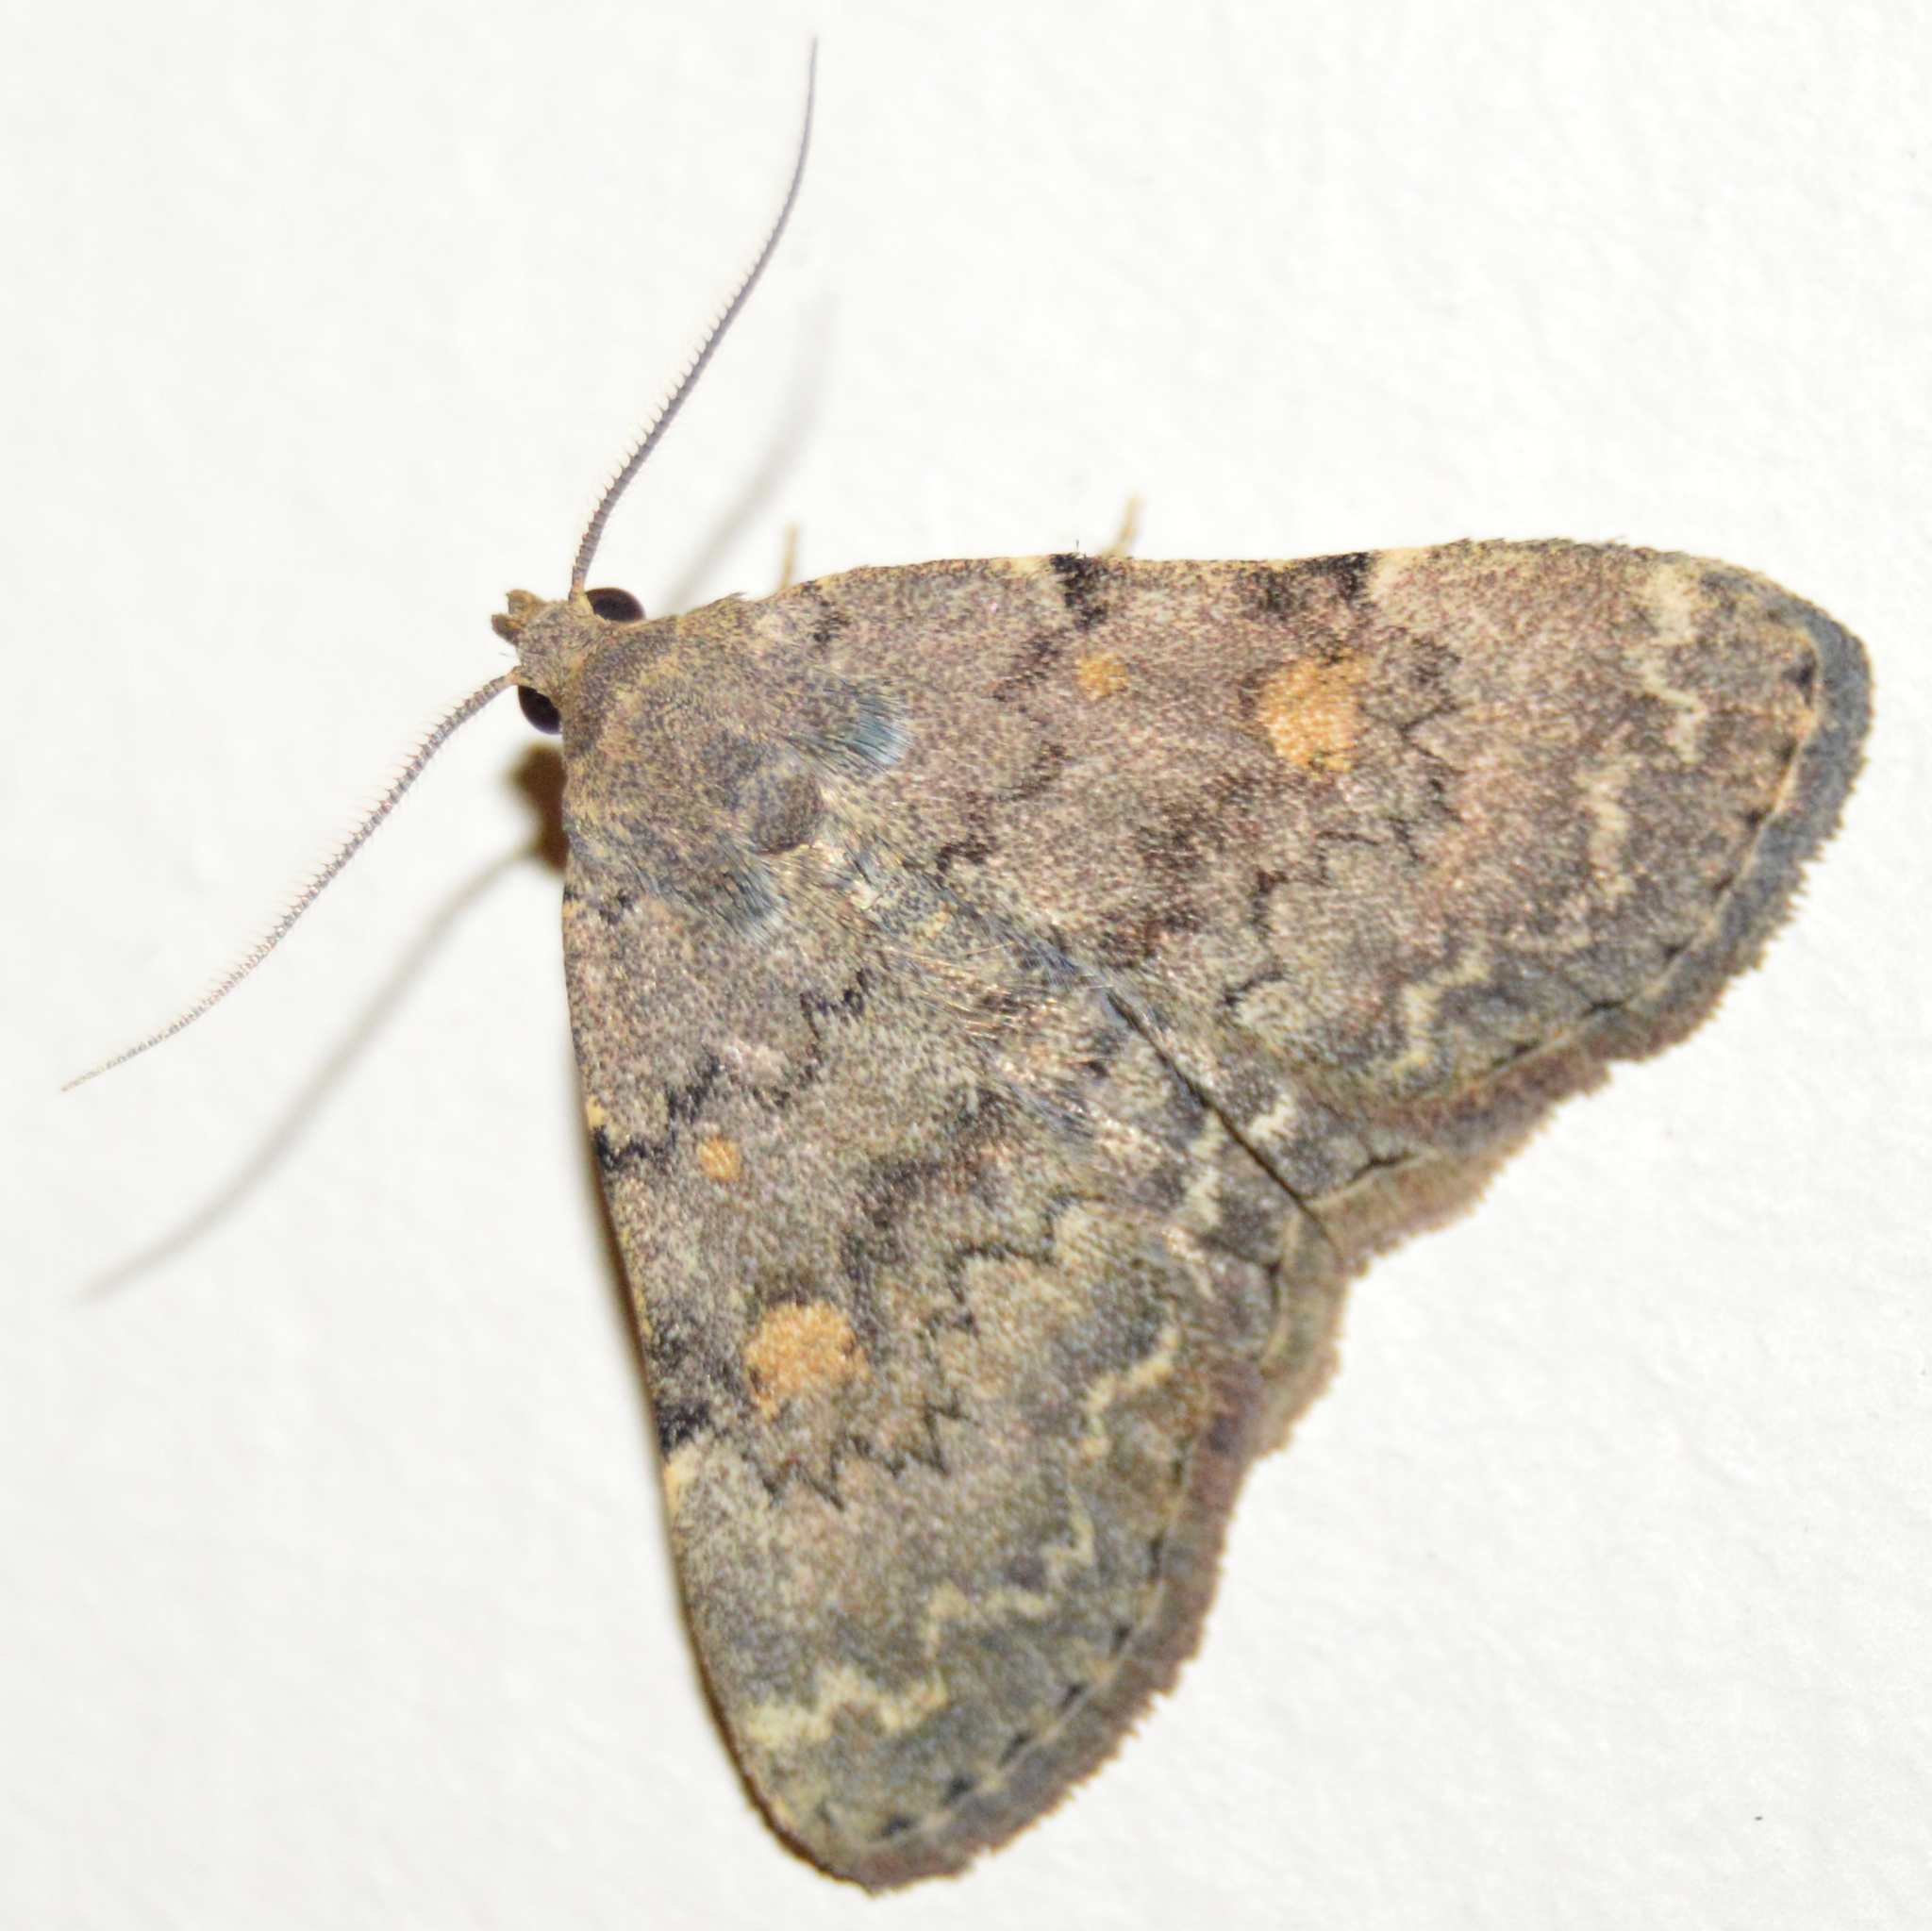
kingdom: Animalia
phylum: Arthropoda
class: Insecta
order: Lepidoptera
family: Erebidae
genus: Idia
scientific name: Idia aemula
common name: Common idia moth
